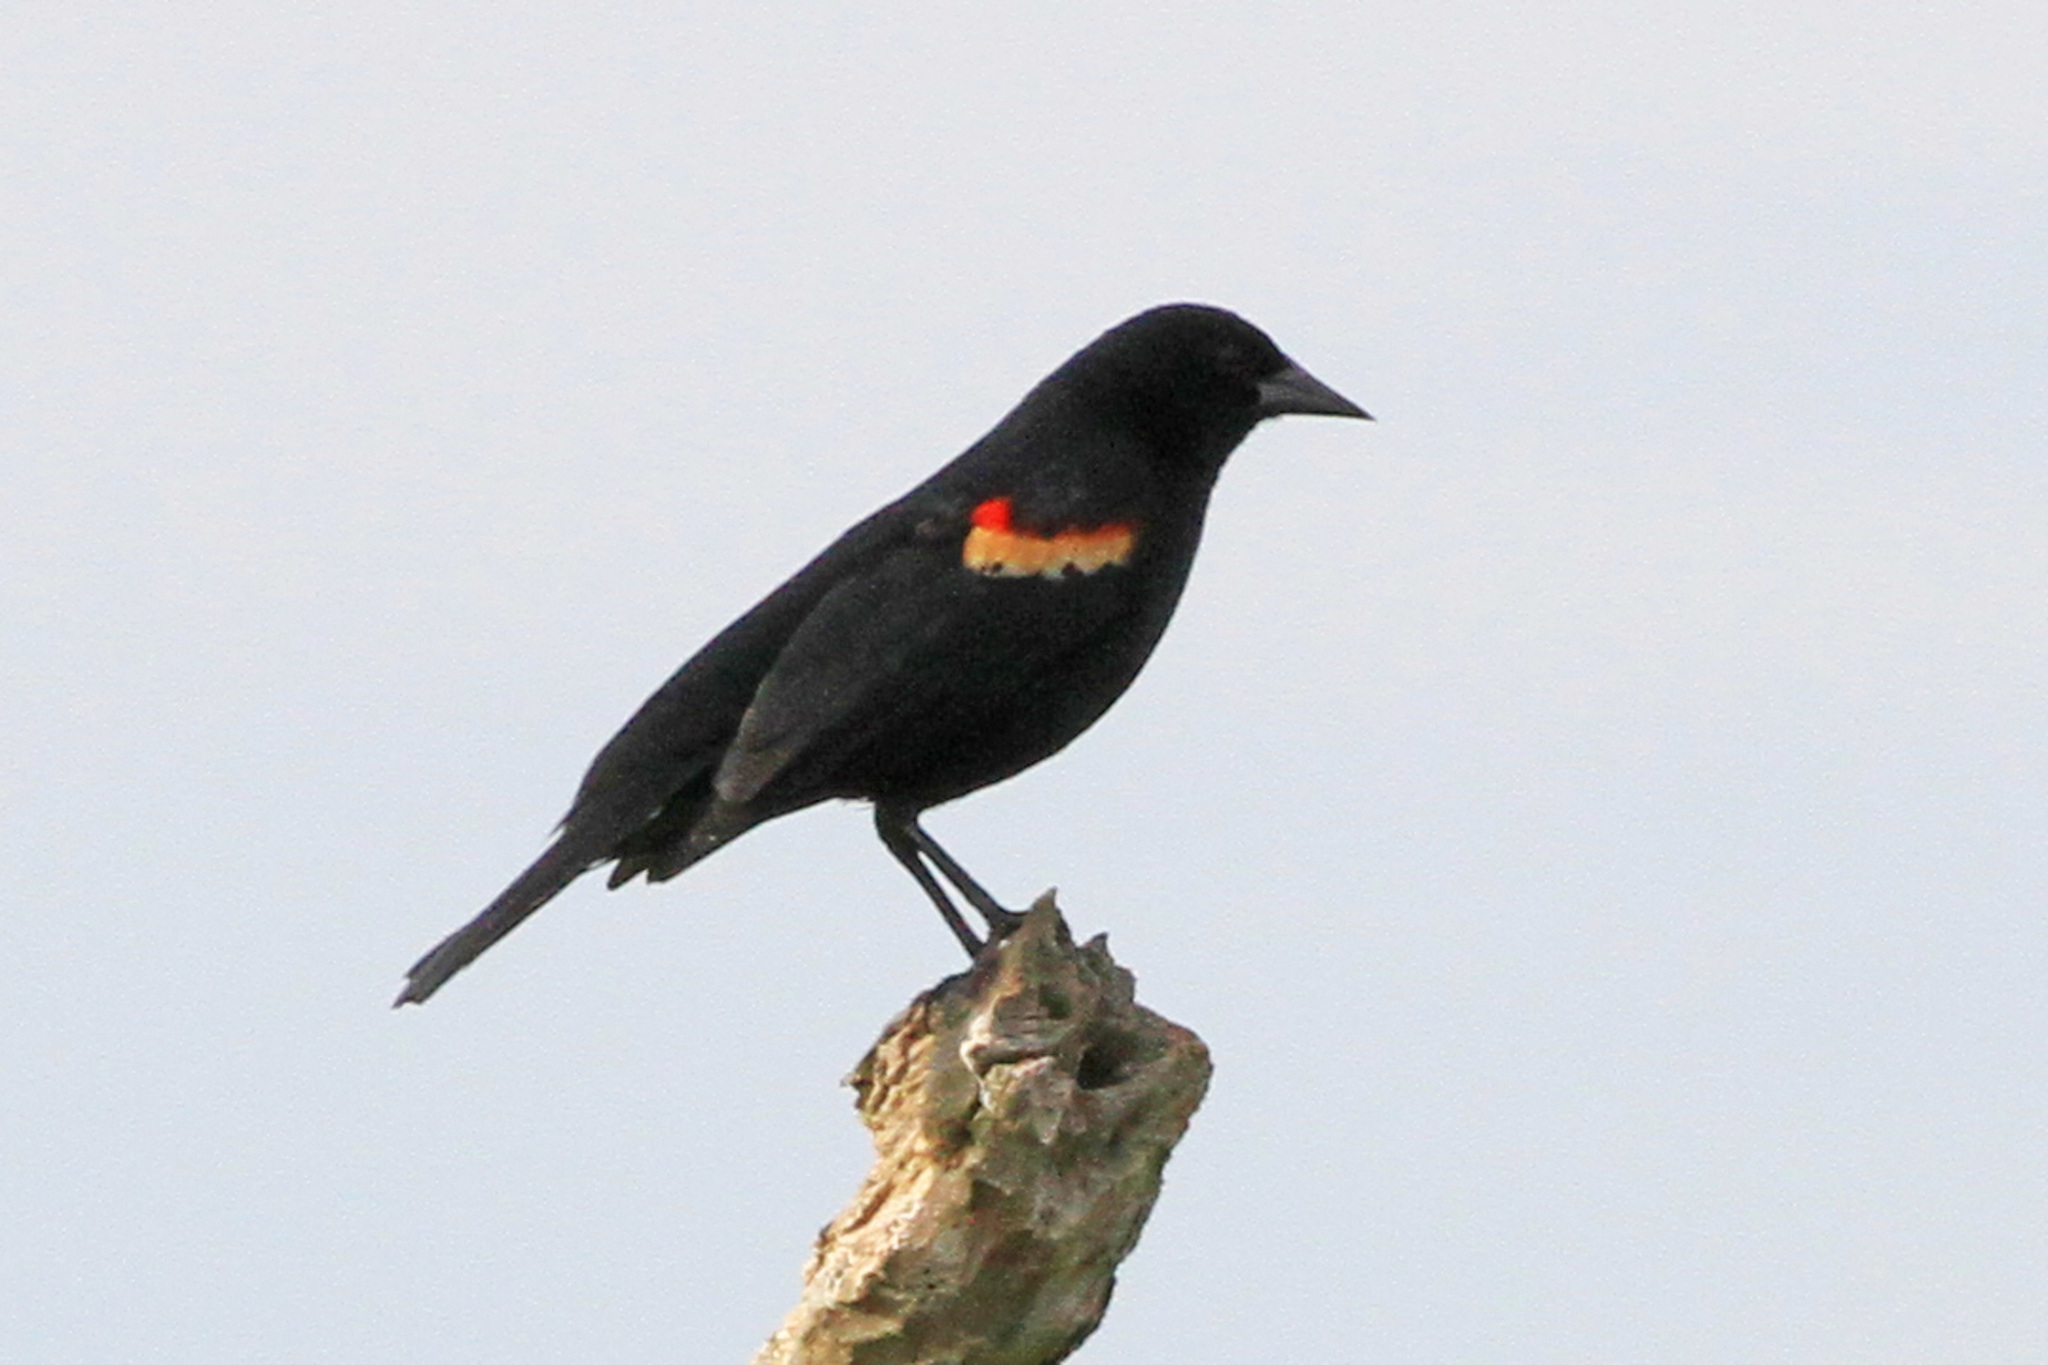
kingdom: Animalia
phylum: Chordata
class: Aves
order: Passeriformes
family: Icteridae
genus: Agelaius
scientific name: Agelaius phoeniceus
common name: Red-winged blackbird
